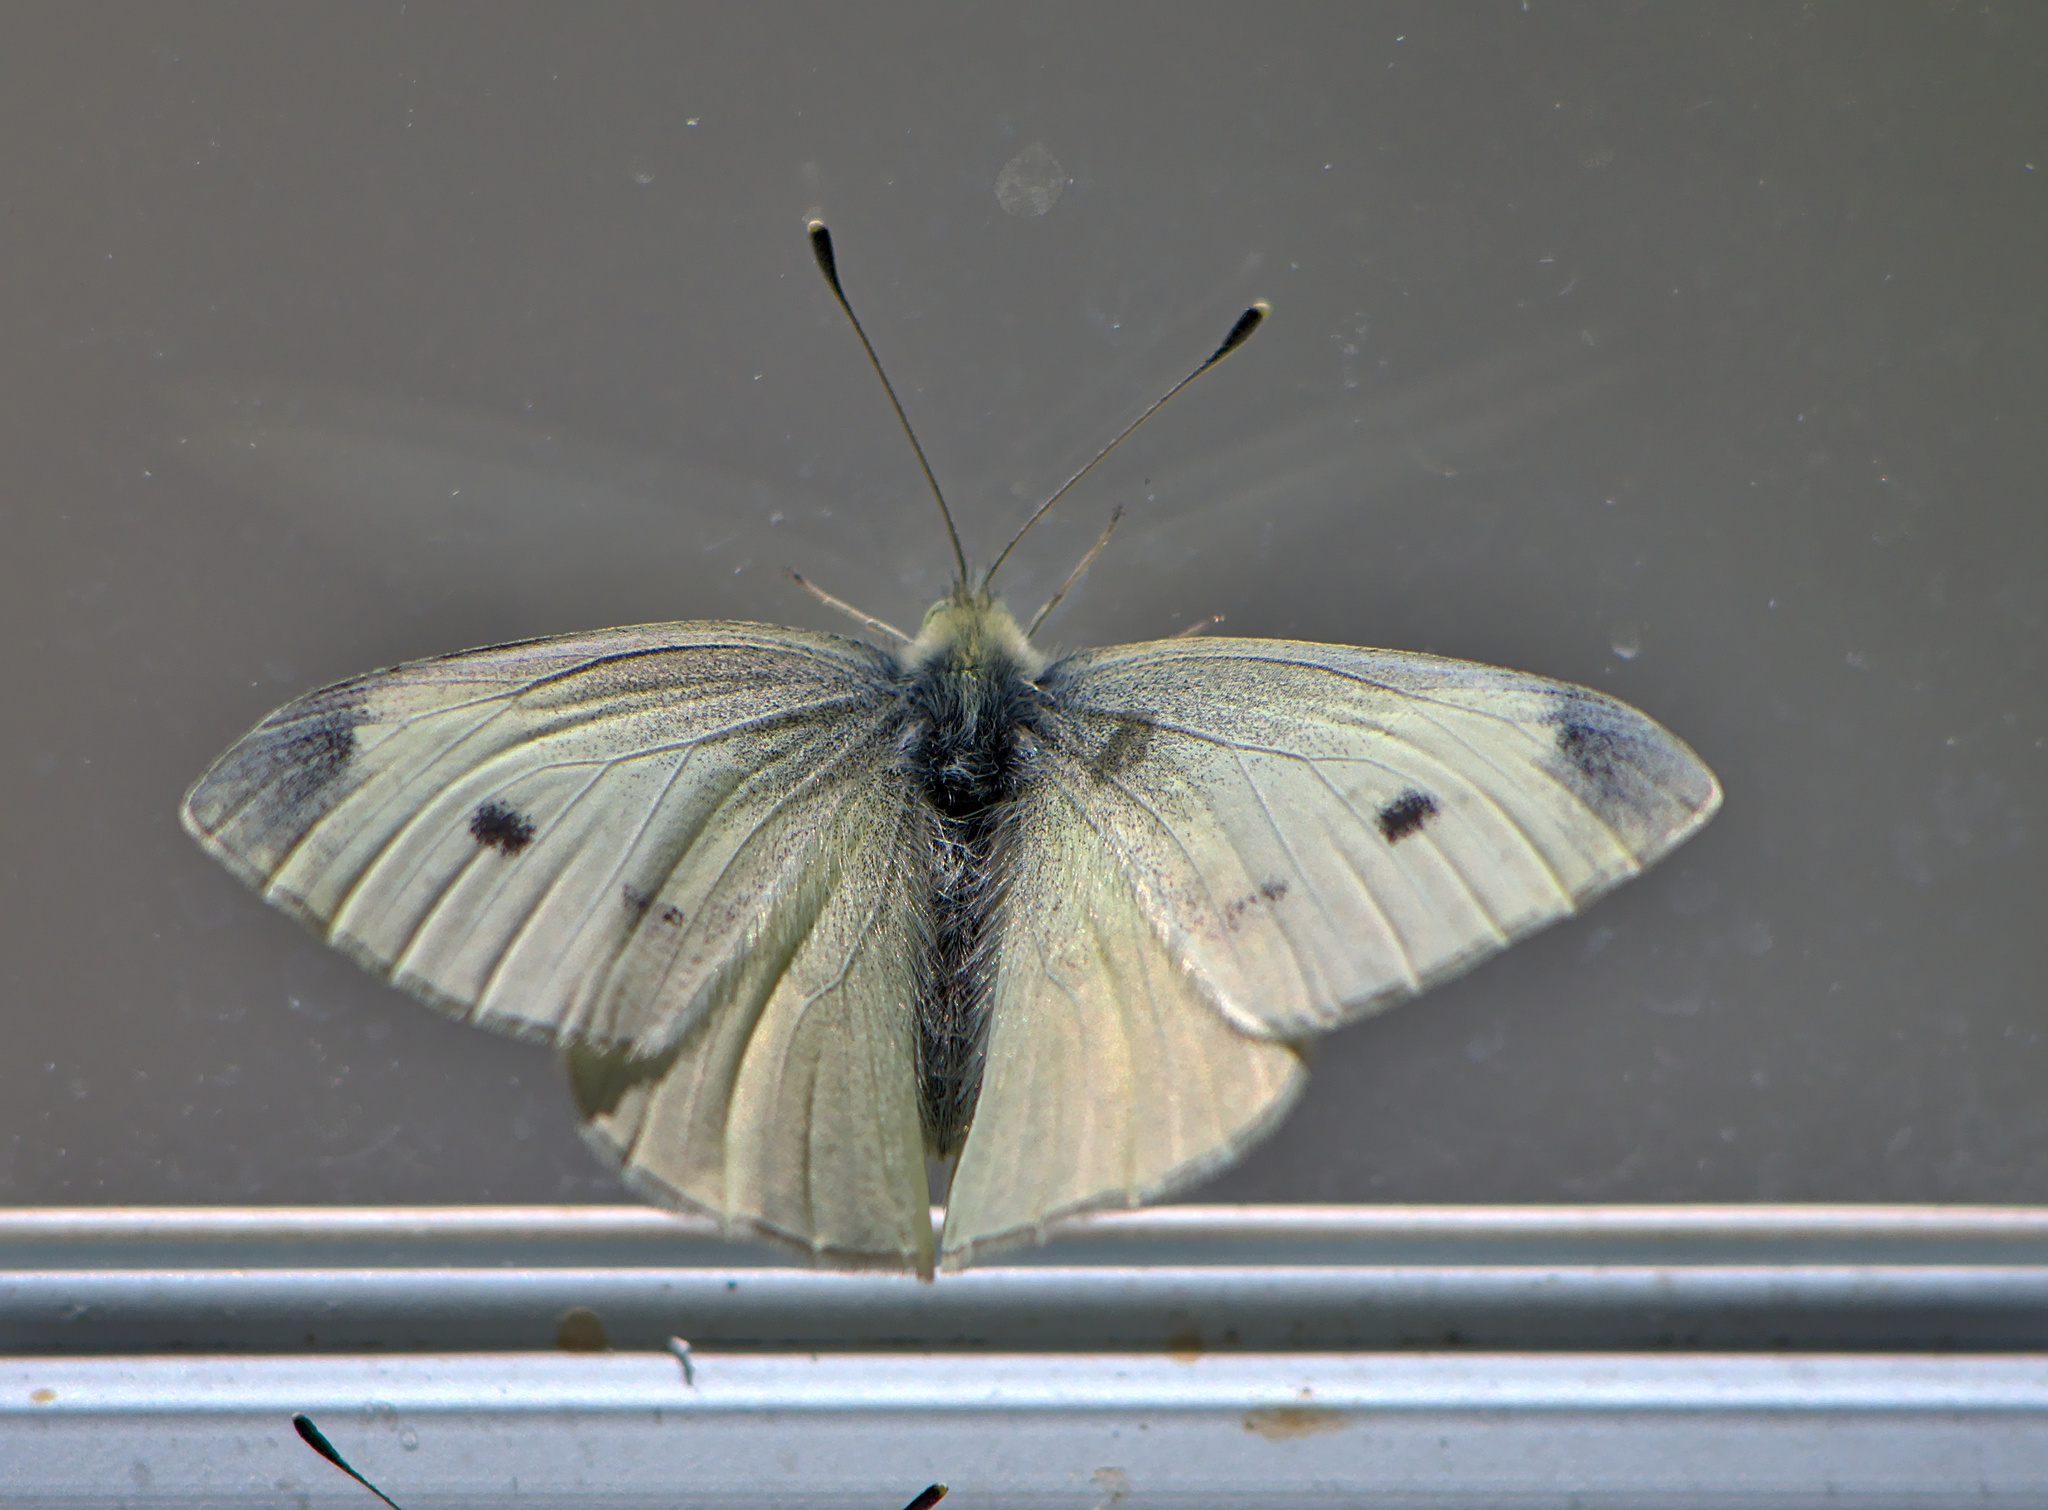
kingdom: Animalia
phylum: Arthropoda
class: Insecta
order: Lepidoptera
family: Pieridae
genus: Pieris
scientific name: Pieris rapae
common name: Small white
